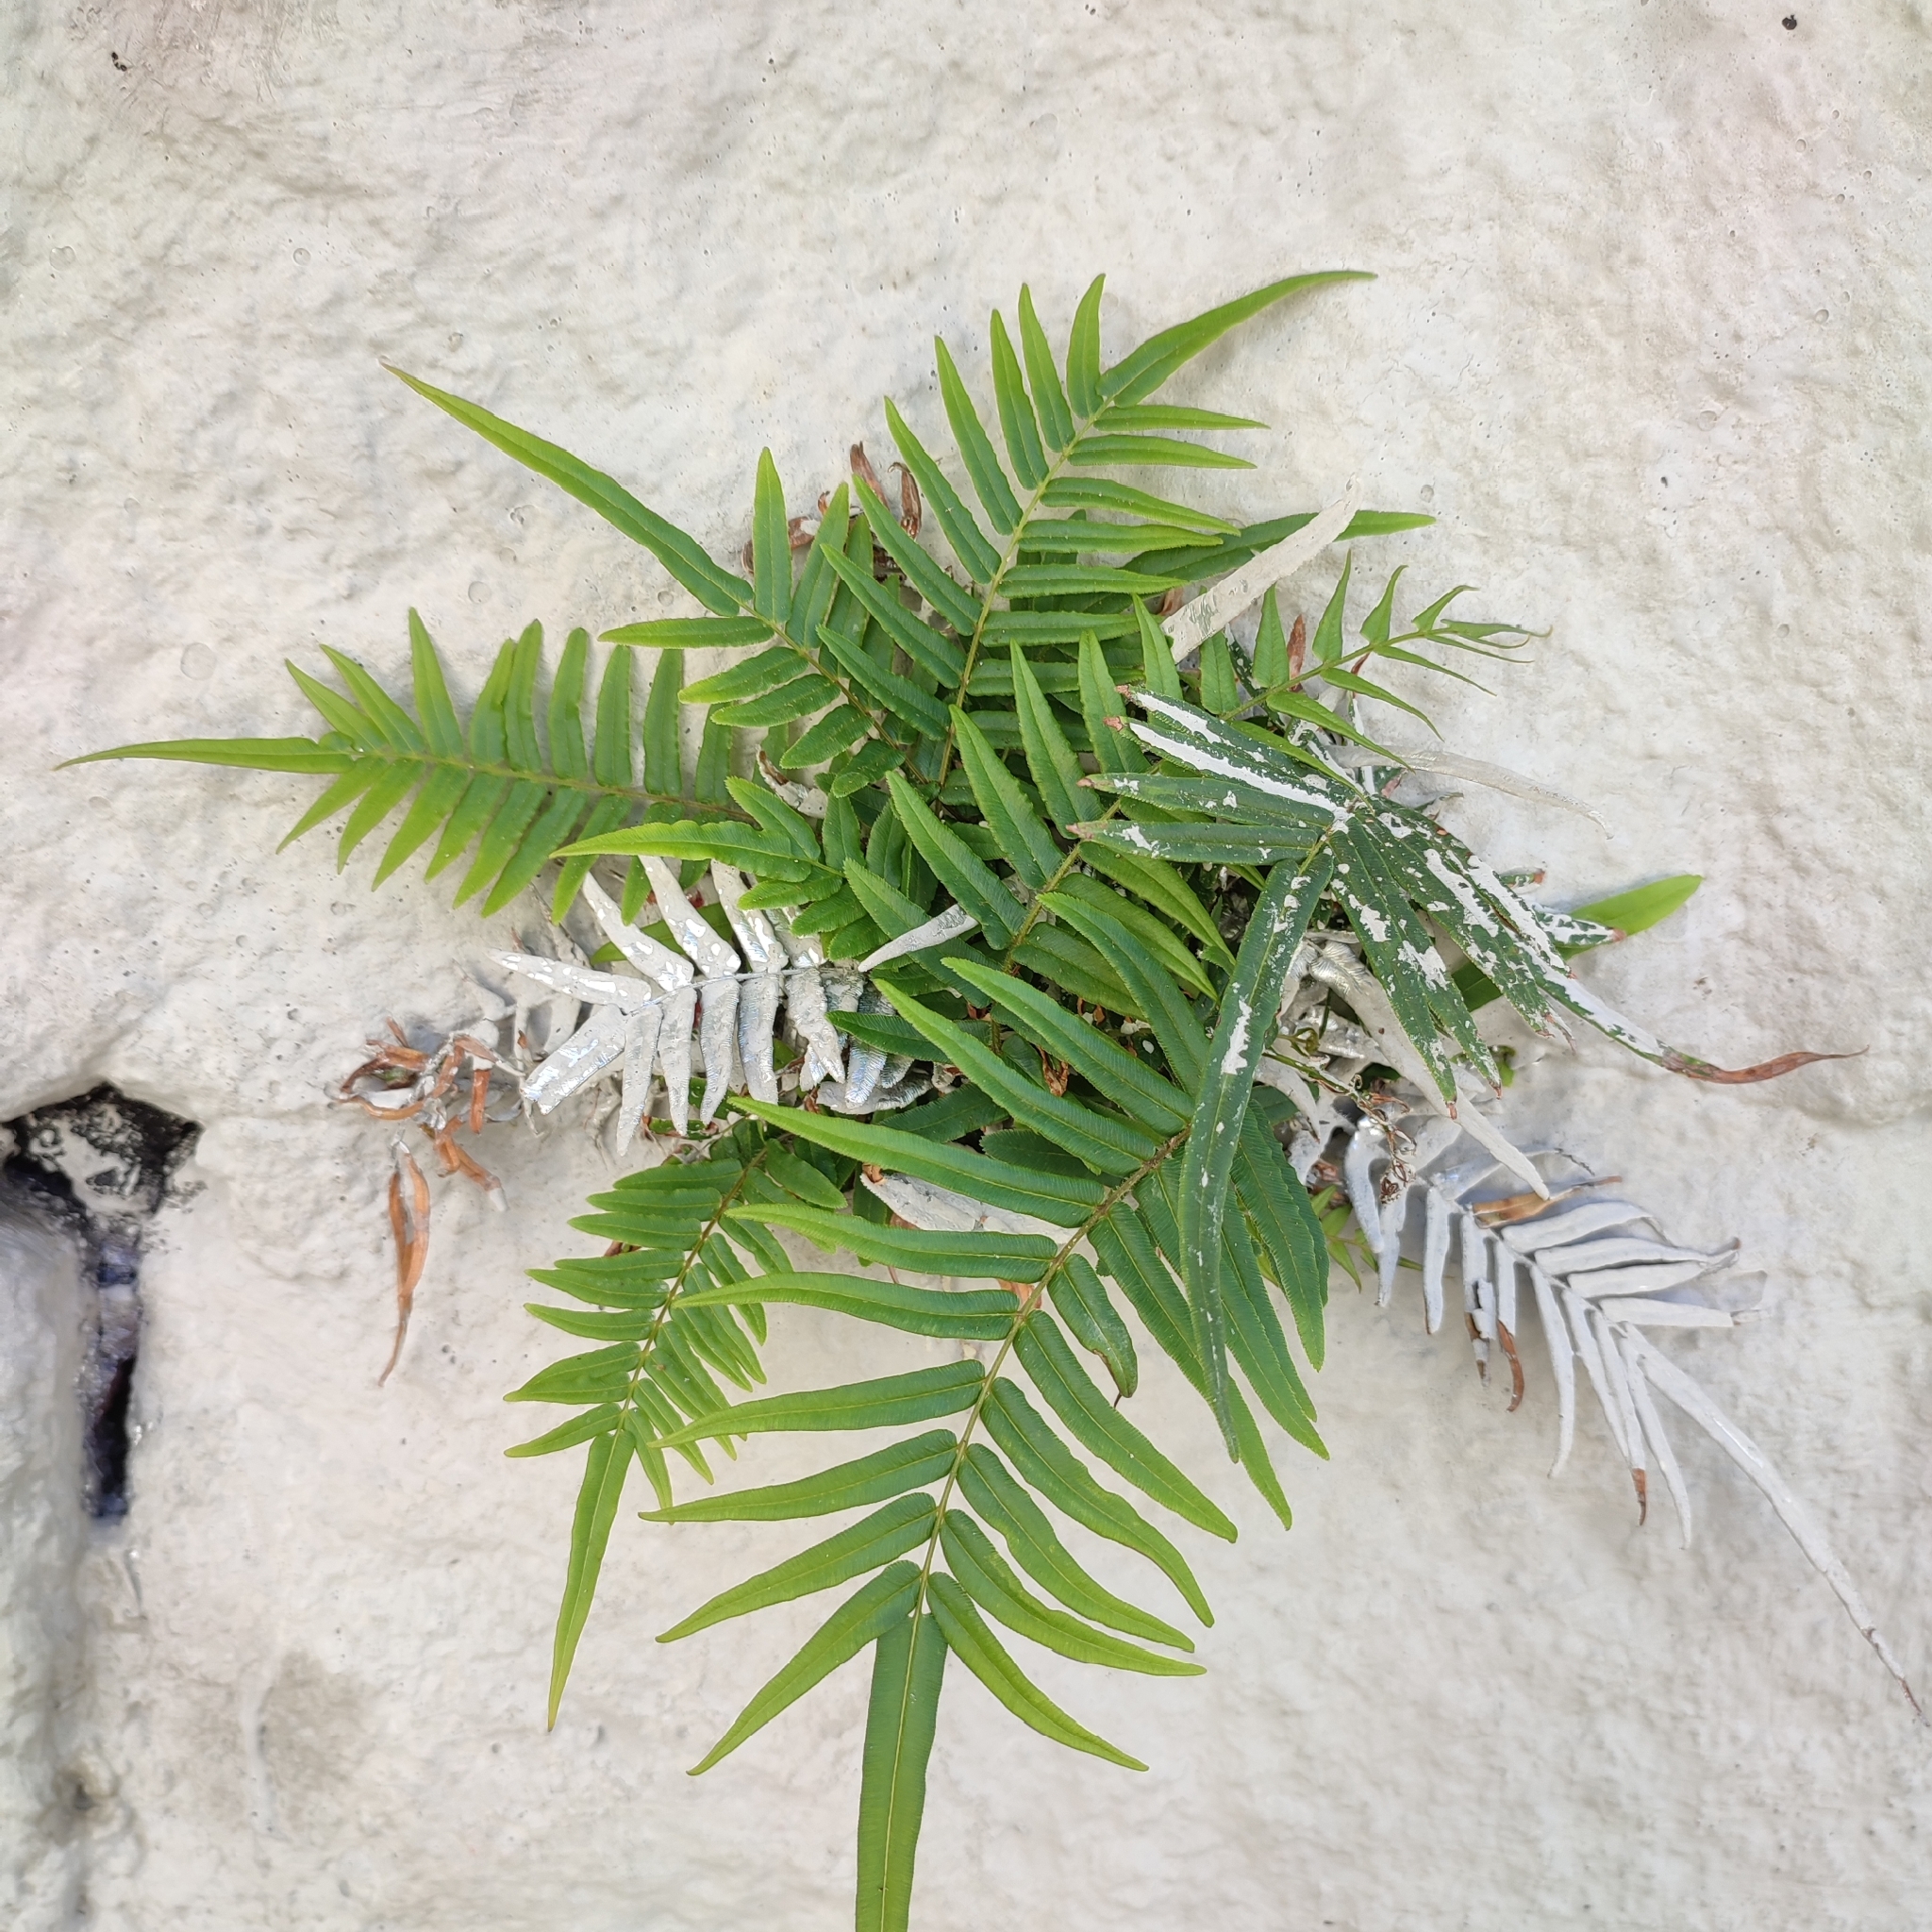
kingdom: Plantae
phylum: Tracheophyta
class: Polypodiopsida
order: Polypodiales
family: Pteridaceae
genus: Pteris
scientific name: Pteris vittata
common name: Ladder brake
